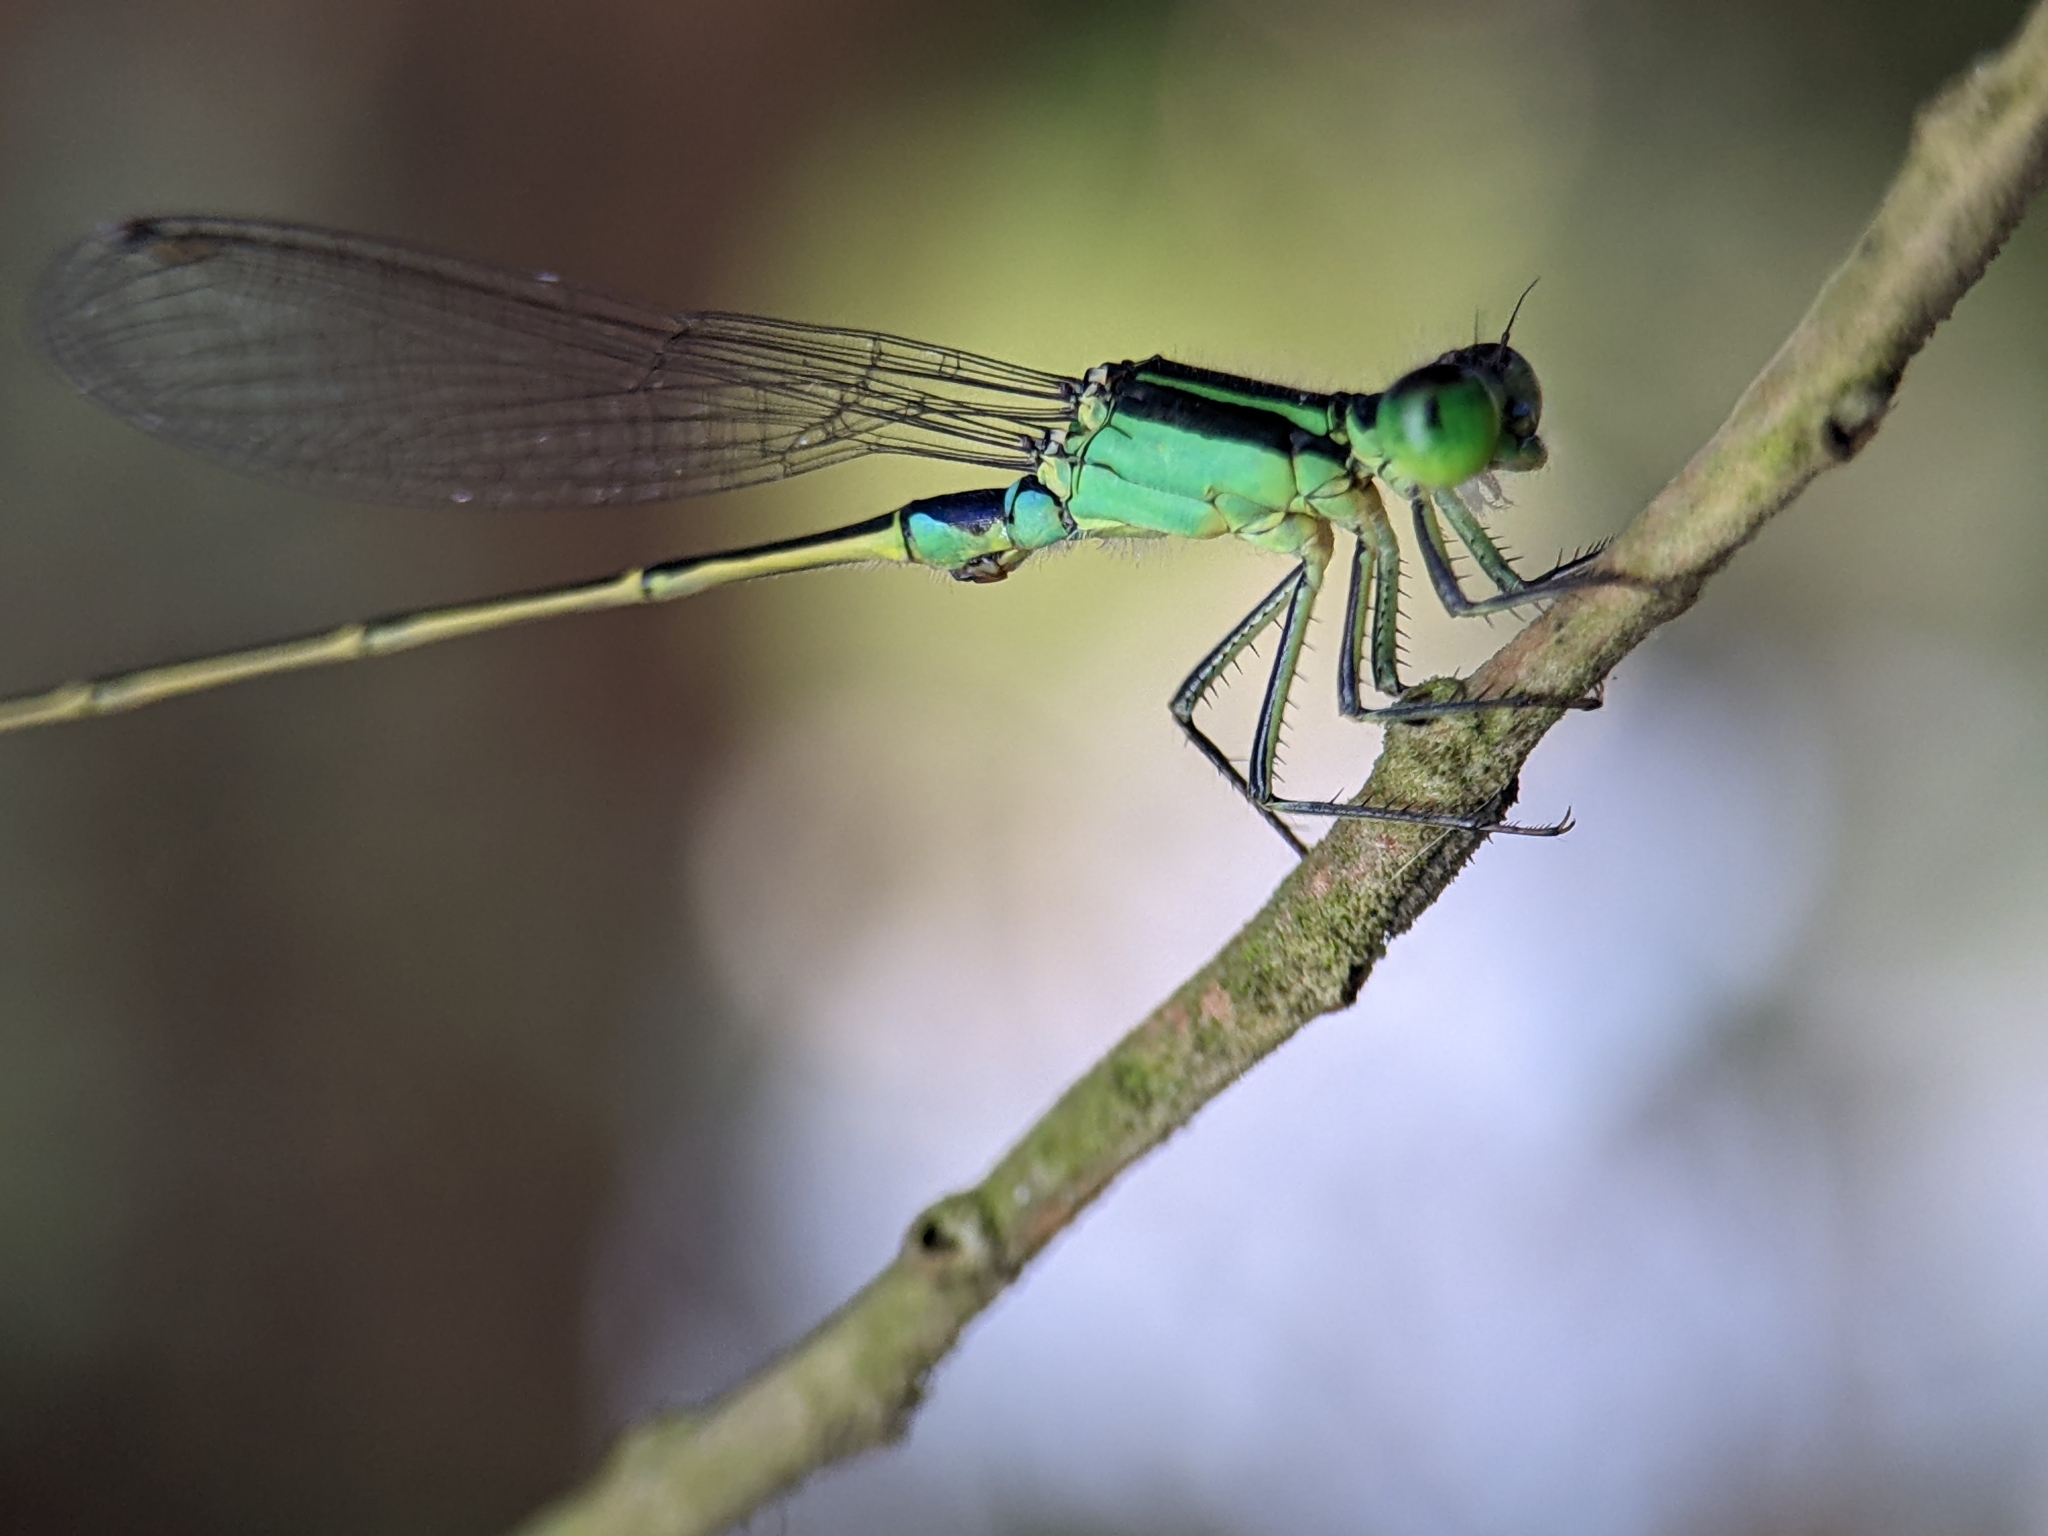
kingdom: Animalia
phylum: Arthropoda
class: Insecta
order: Odonata
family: Coenagrionidae
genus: Ischnura
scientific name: Ischnura senegalensis
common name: Tropical bluetail
